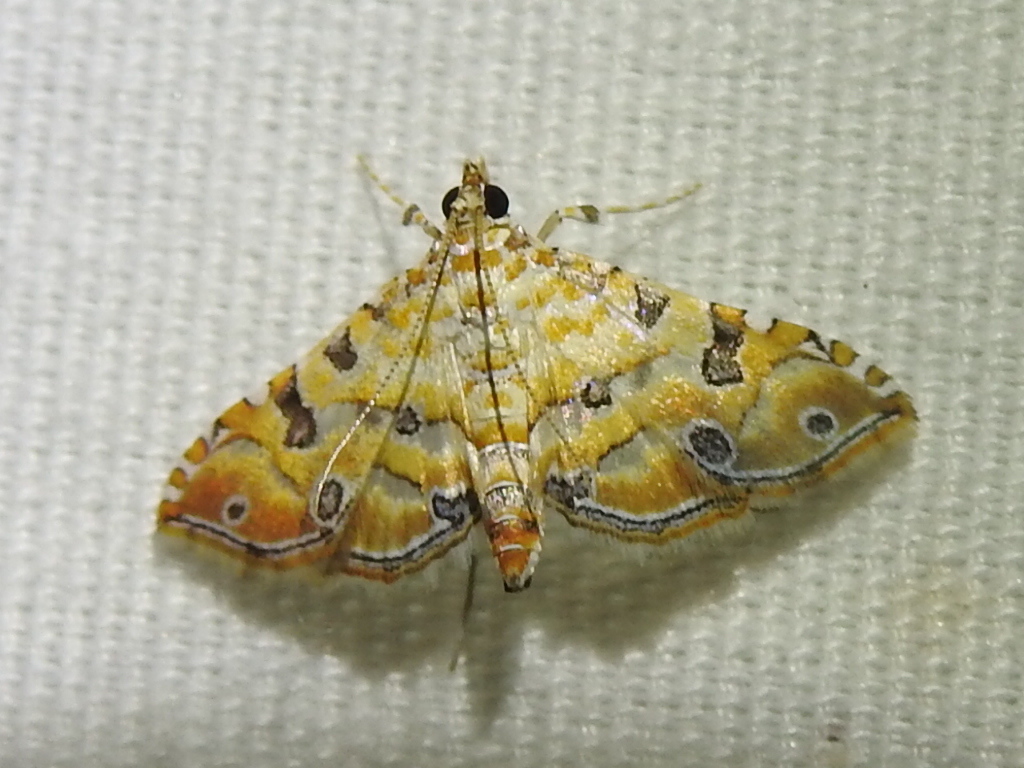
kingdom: Animalia
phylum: Arthropoda
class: Insecta
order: Lepidoptera
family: Crambidae
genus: Ommatospila
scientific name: Ommatospila narcaeusalis
